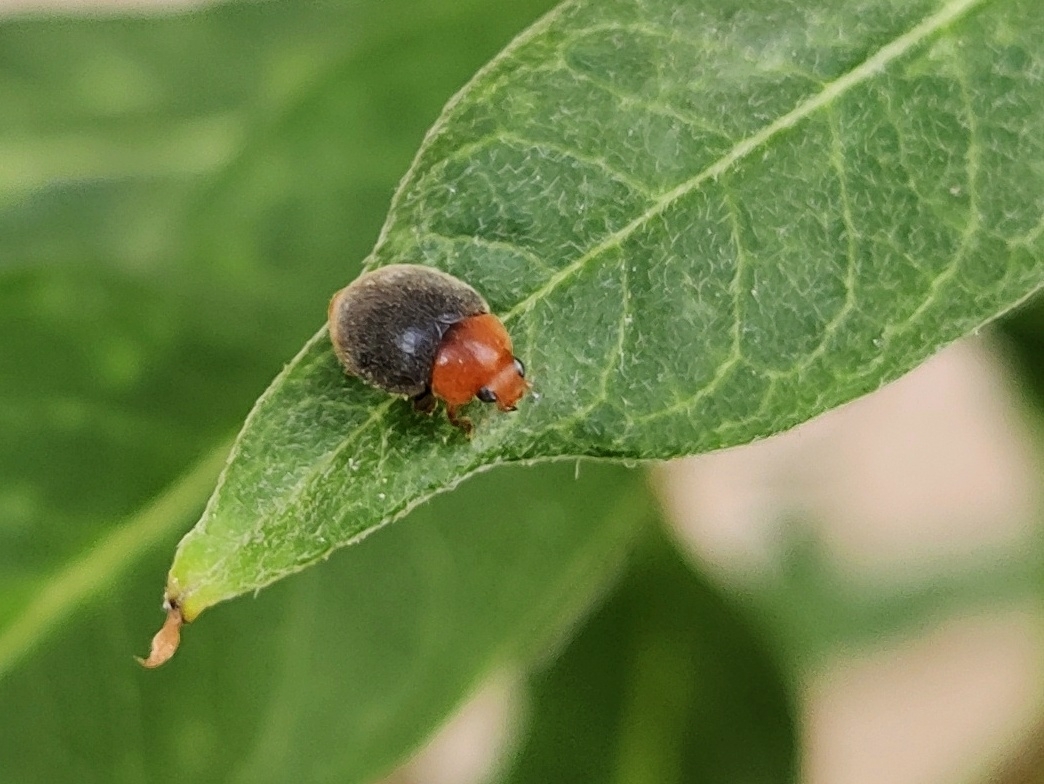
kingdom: Animalia
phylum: Arthropoda
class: Insecta
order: Coleoptera
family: Coccinellidae
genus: Cryptolaemus
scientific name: Cryptolaemus montrouzieri
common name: Mealybug destroyer
